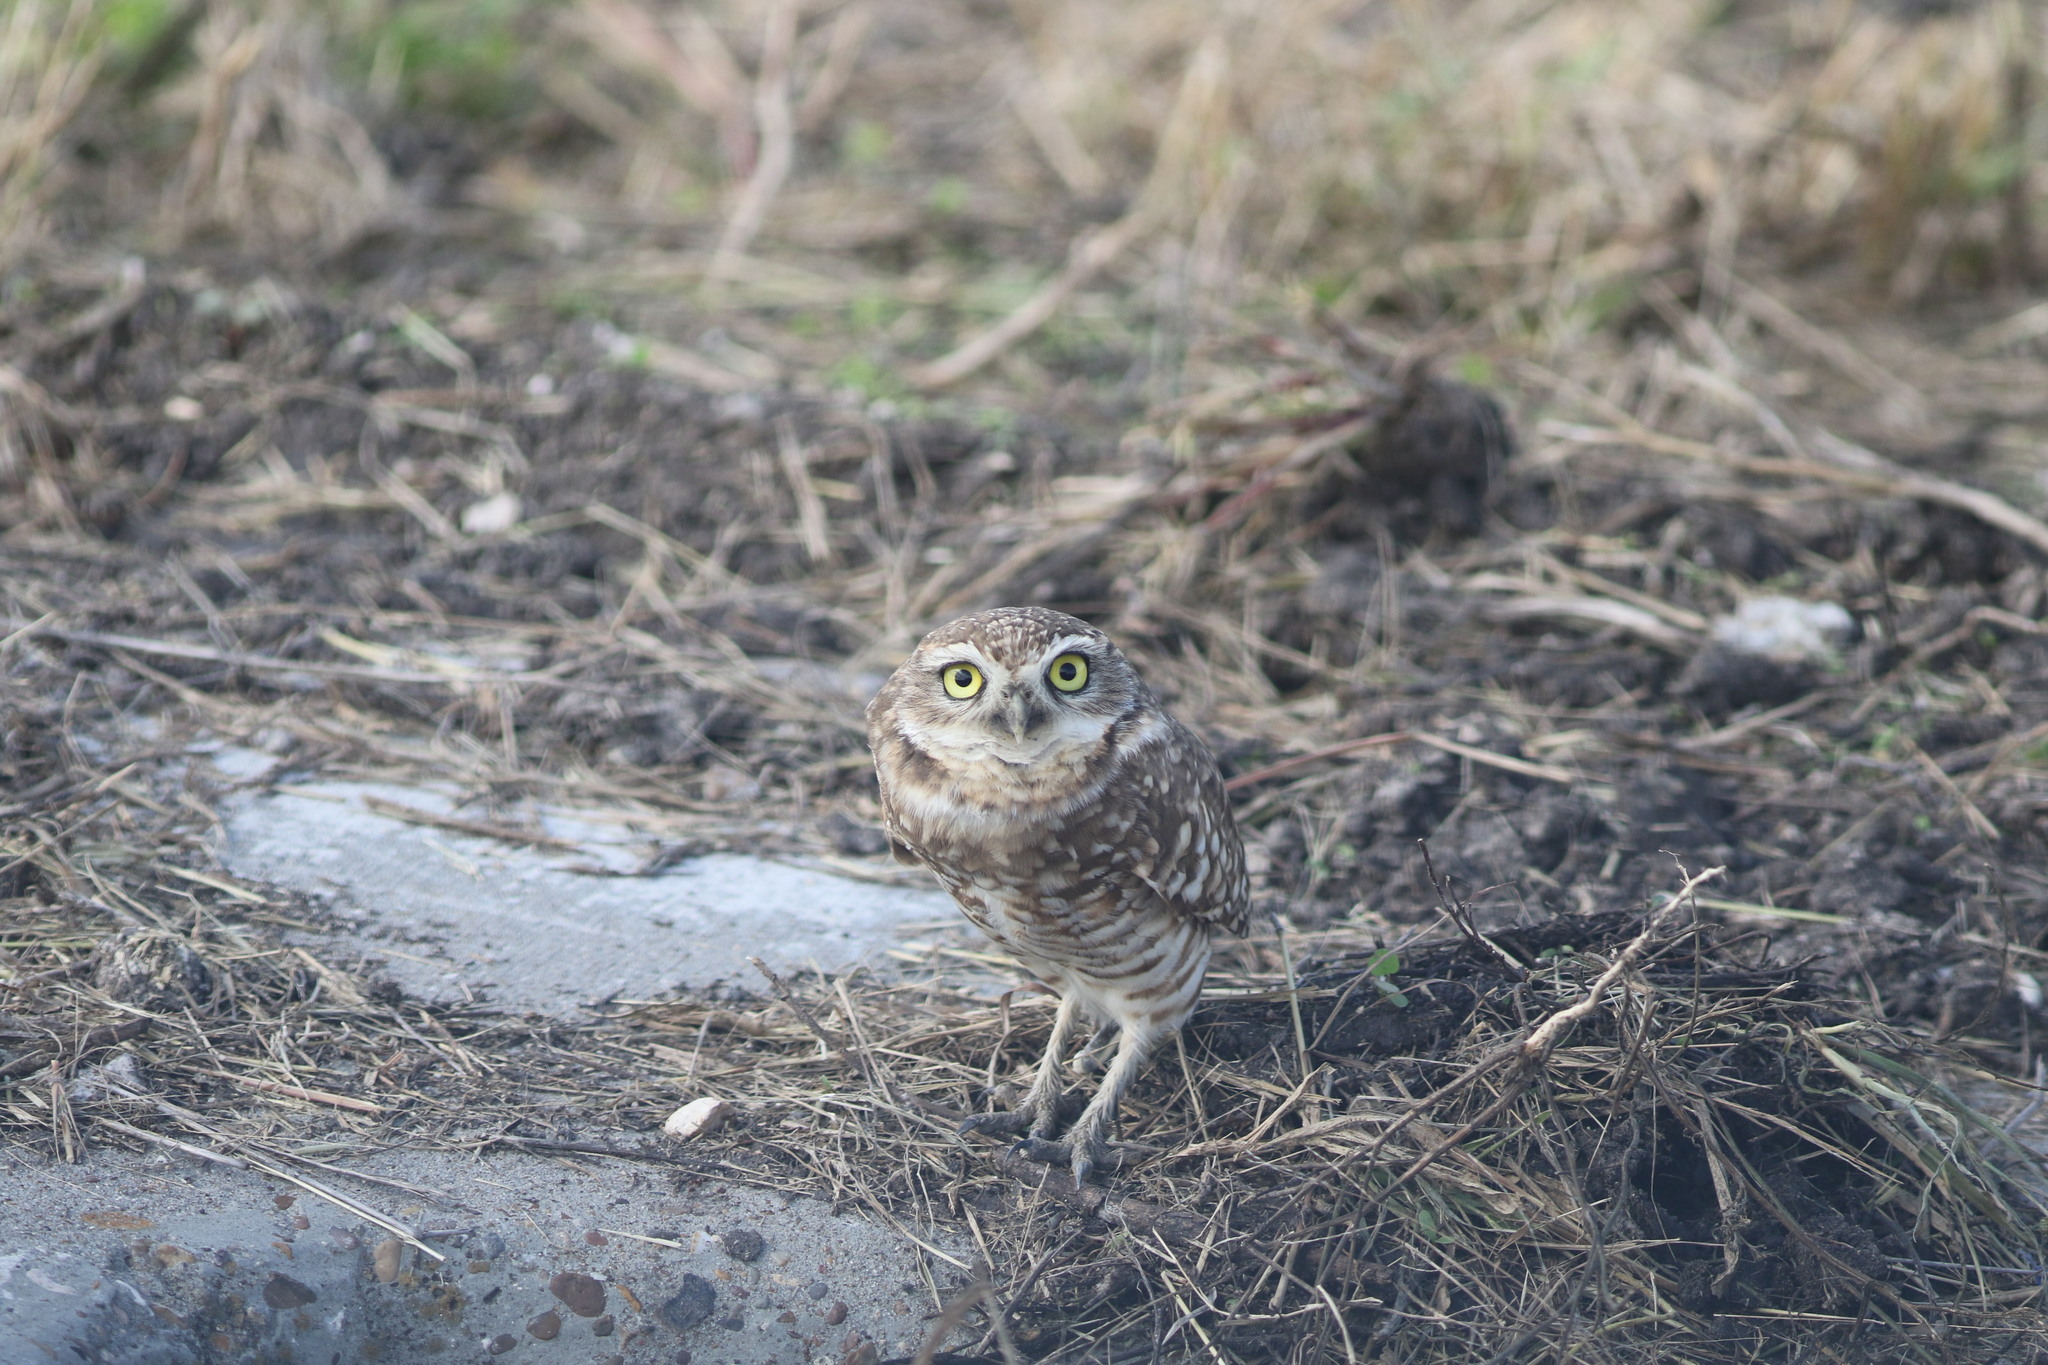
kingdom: Animalia
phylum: Chordata
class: Aves
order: Strigiformes
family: Strigidae
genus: Athene
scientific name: Athene cunicularia
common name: Burrowing owl
